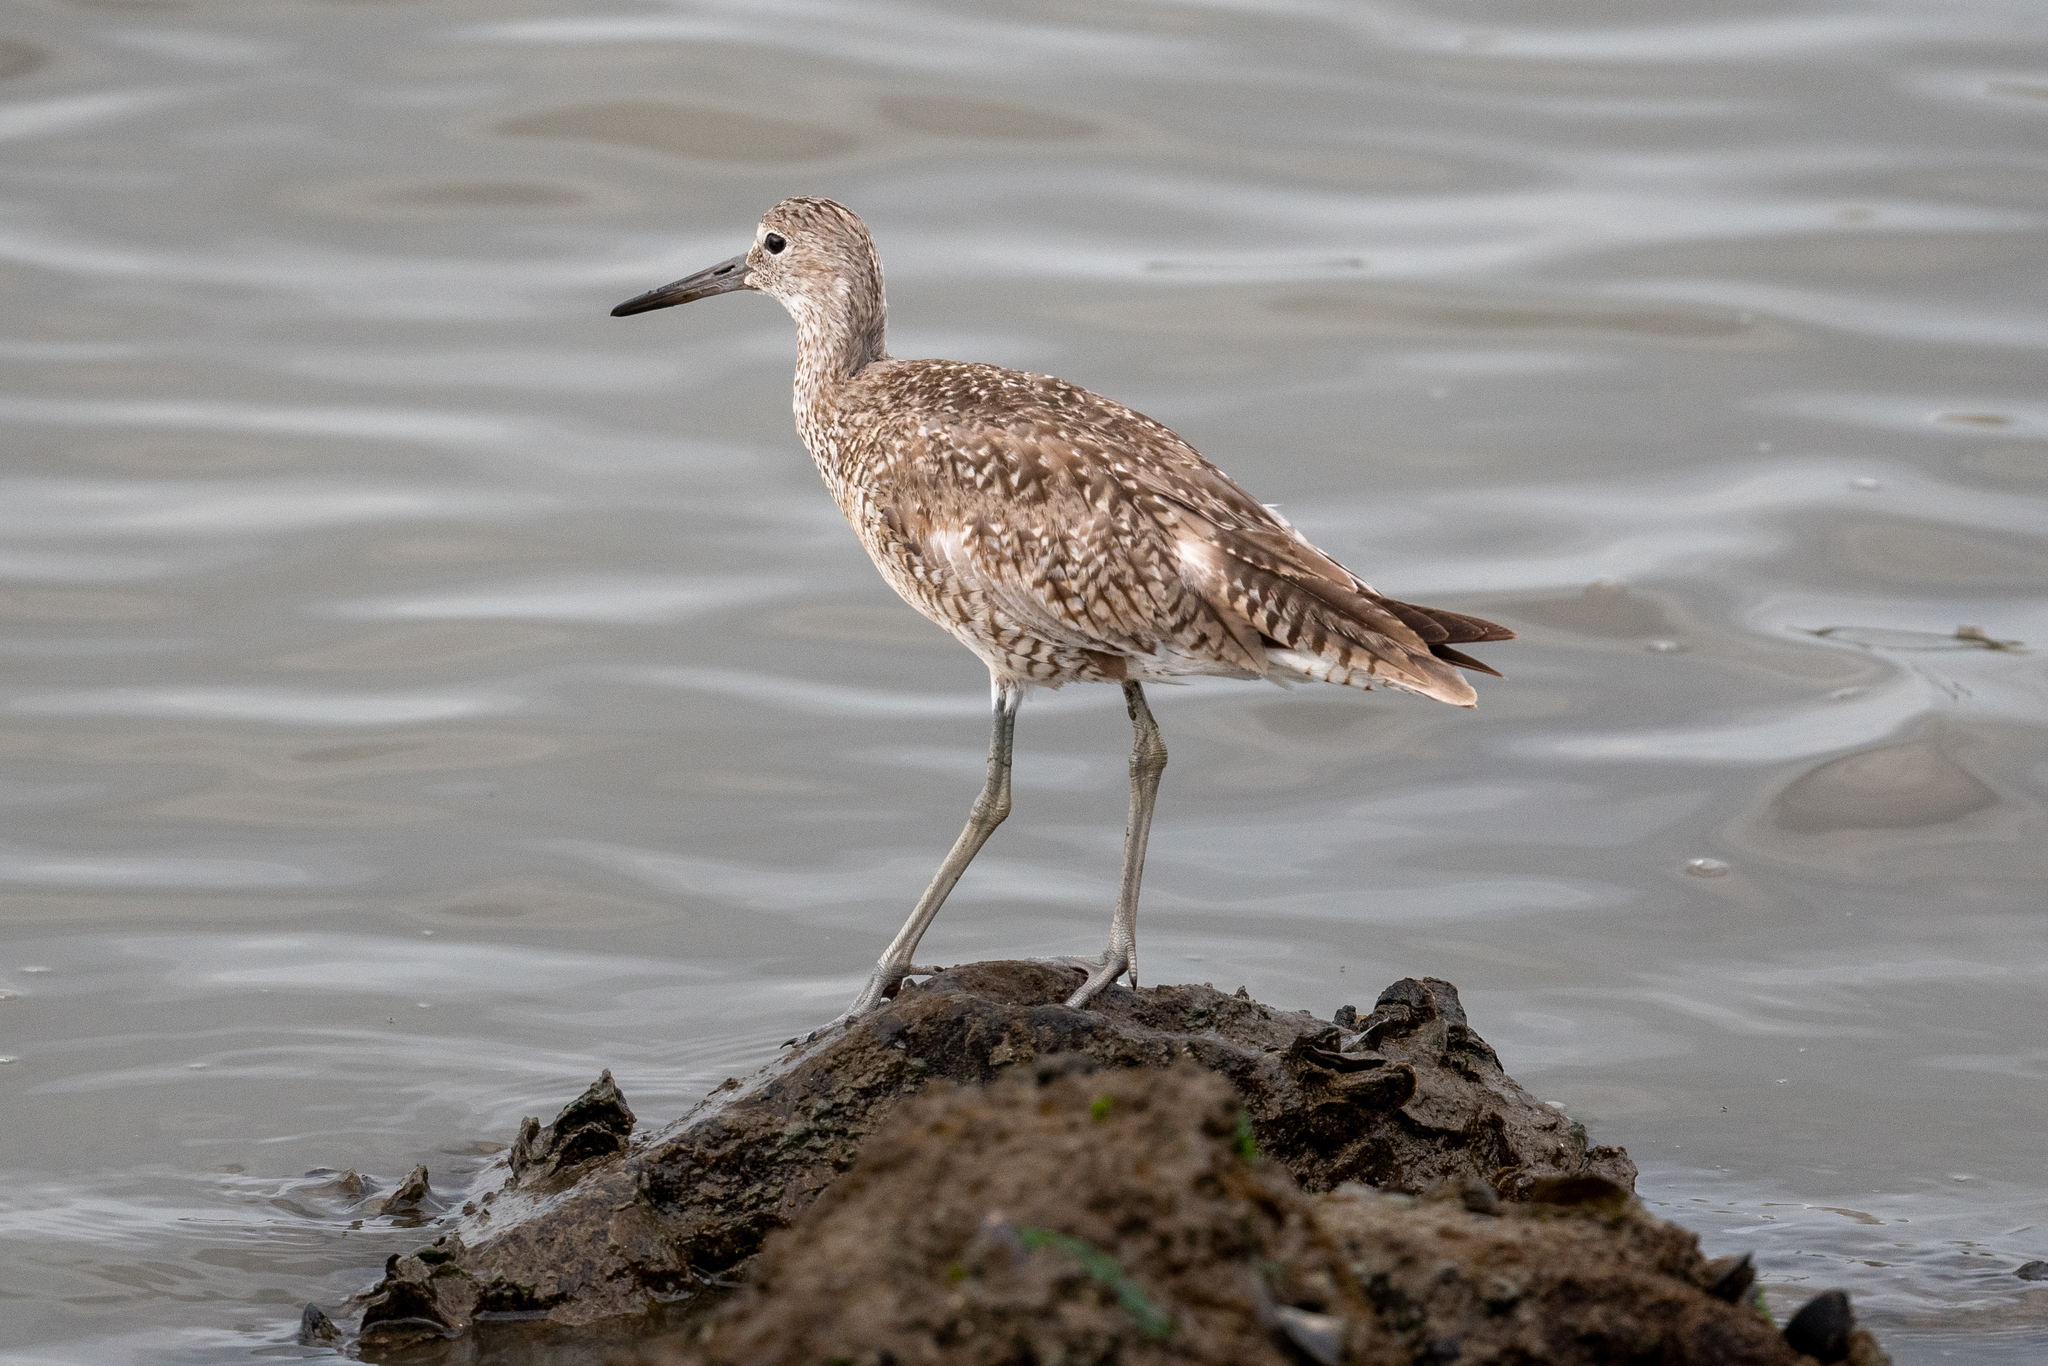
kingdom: Animalia
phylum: Chordata
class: Aves
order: Charadriiformes
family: Scolopacidae
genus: Tringa
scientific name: Tringa semipalmata
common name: Willet
